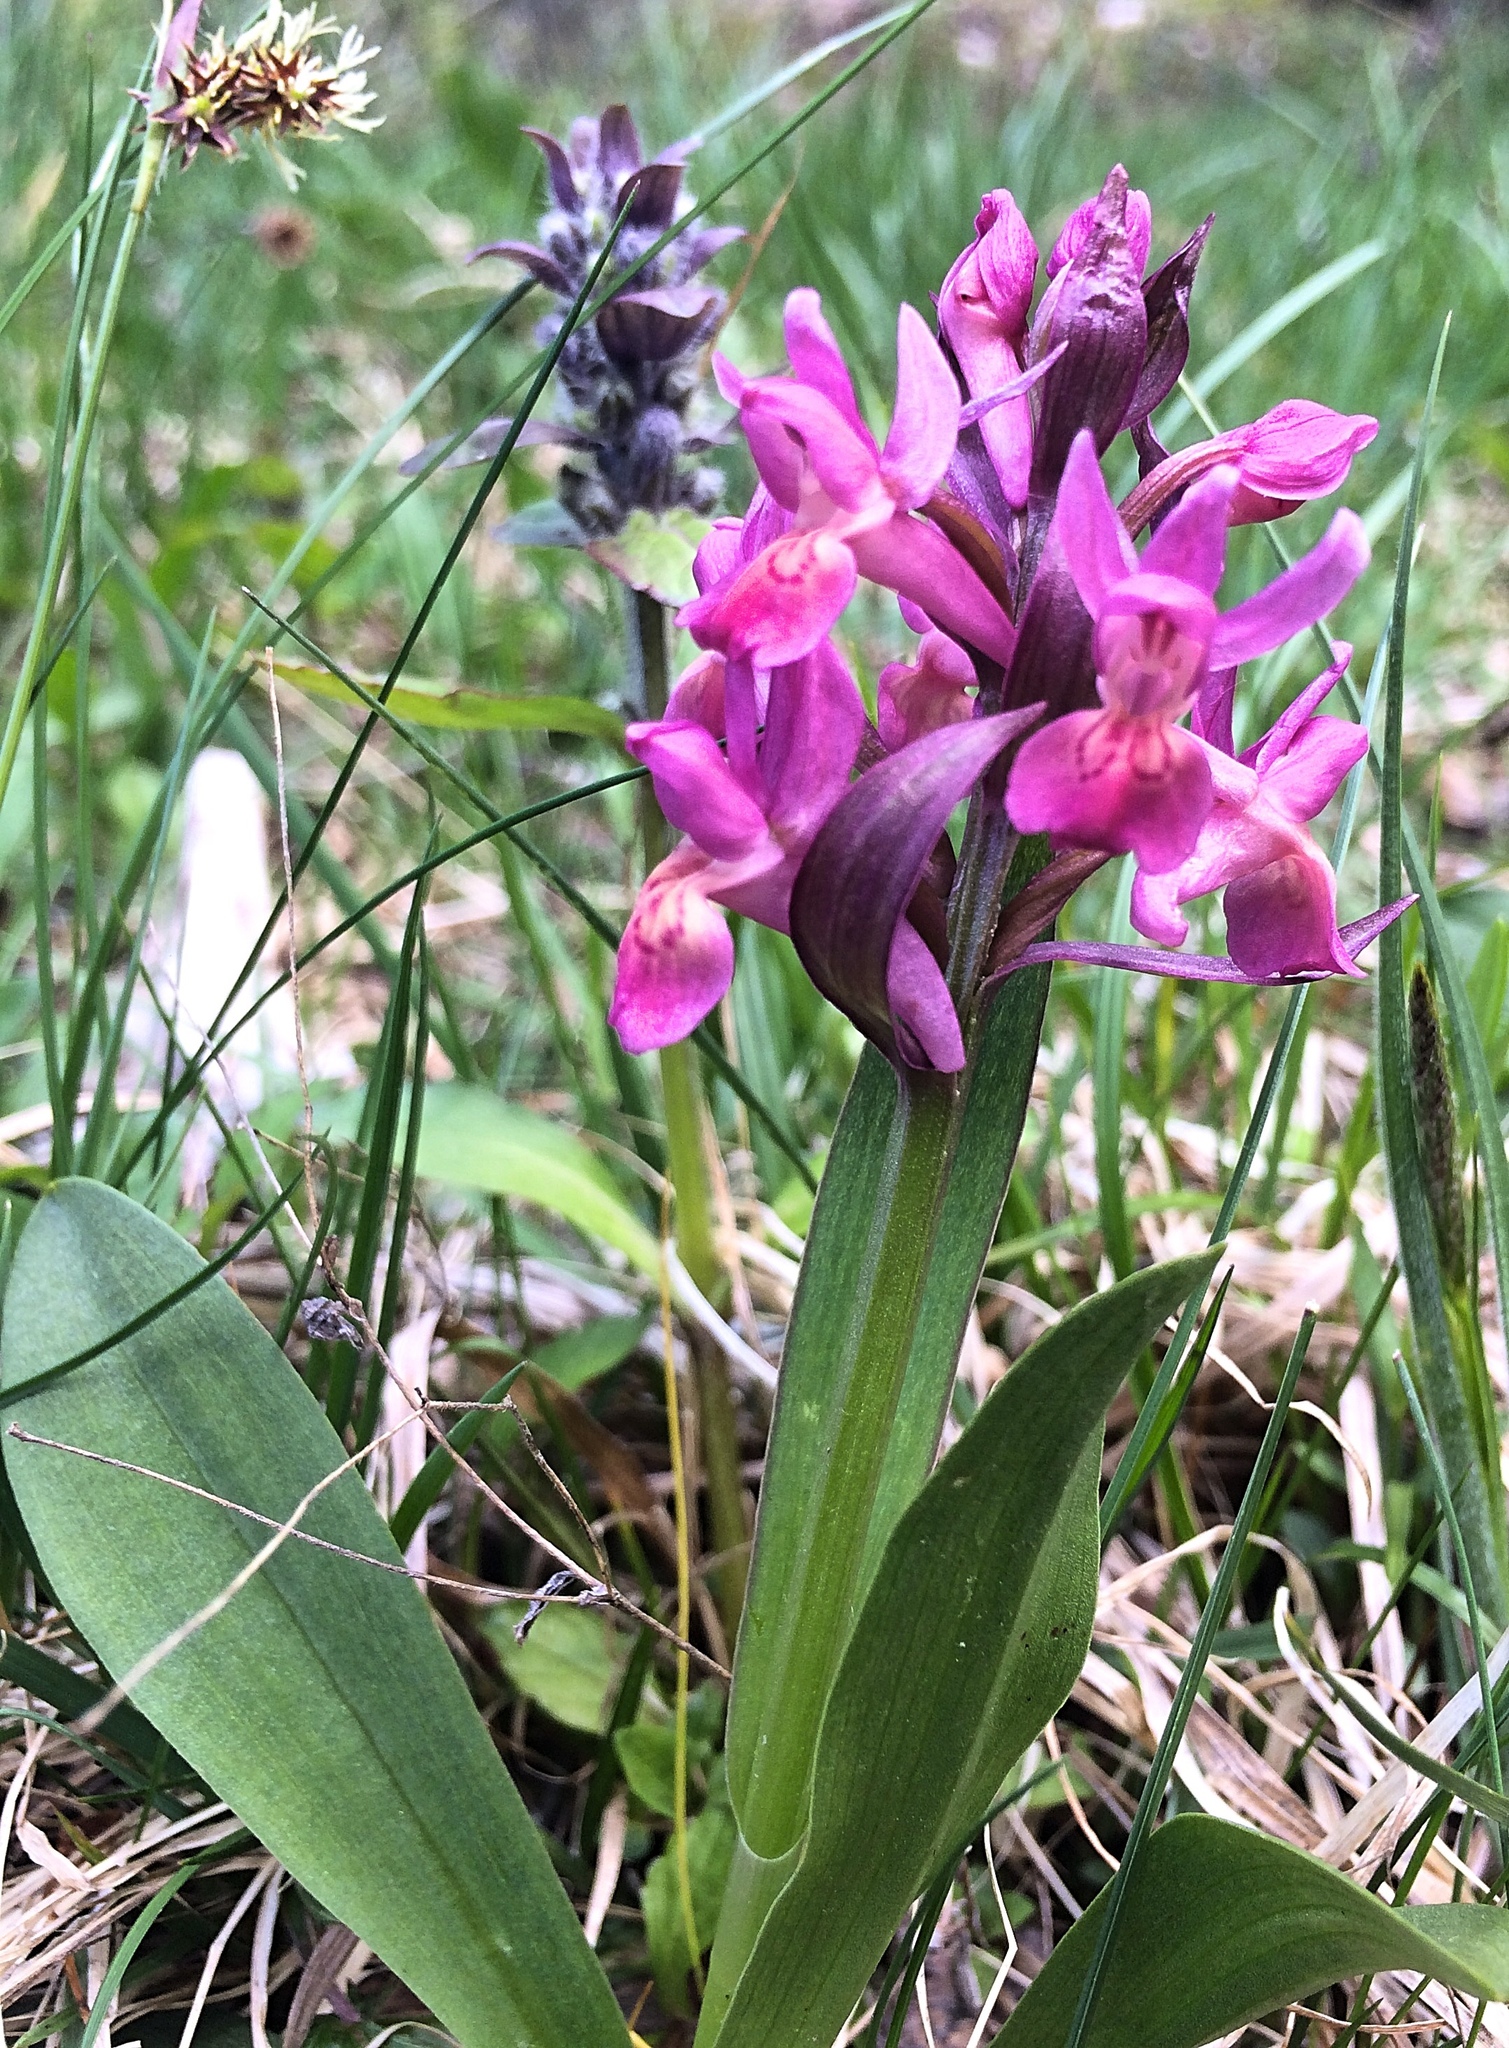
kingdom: Plantae
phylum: Tracheophyta
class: Liliopsida
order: Asparagales
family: Orchidaceae
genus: Dactylorhiza
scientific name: Dactylorhiza sambucina
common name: Elder-flowered orchid
